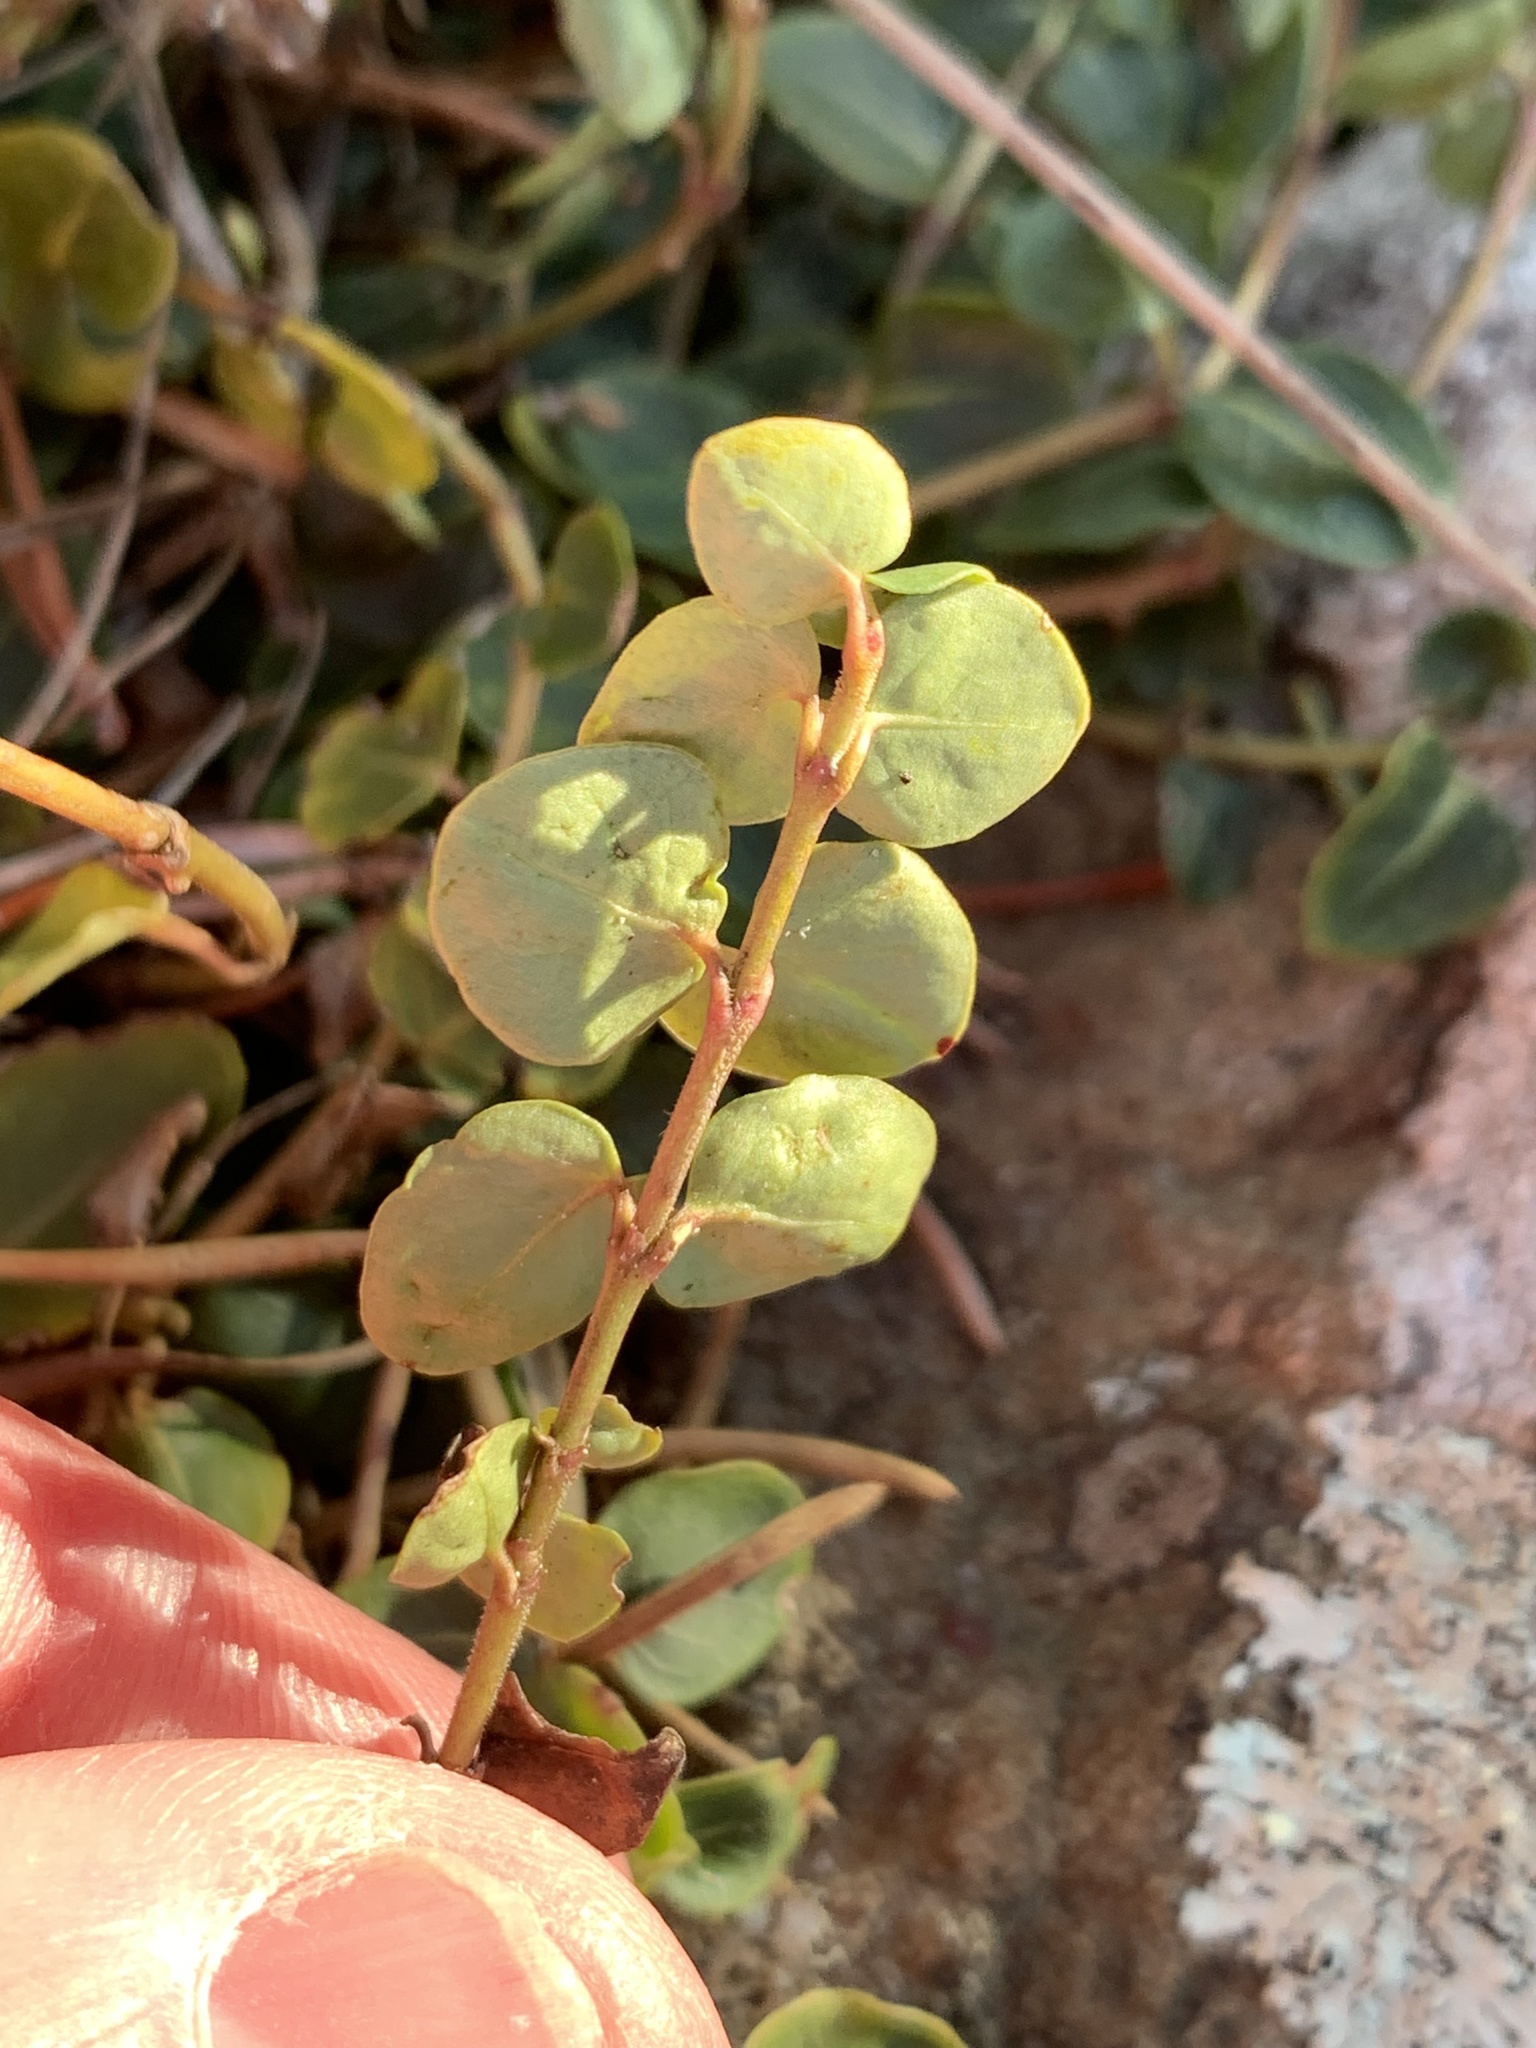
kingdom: Plantae
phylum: Tracheophyta
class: Magnoliopsida
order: Gentianales
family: Rubiaceae
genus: Mitchella
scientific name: Mitchella repens
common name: Partridge-berry
